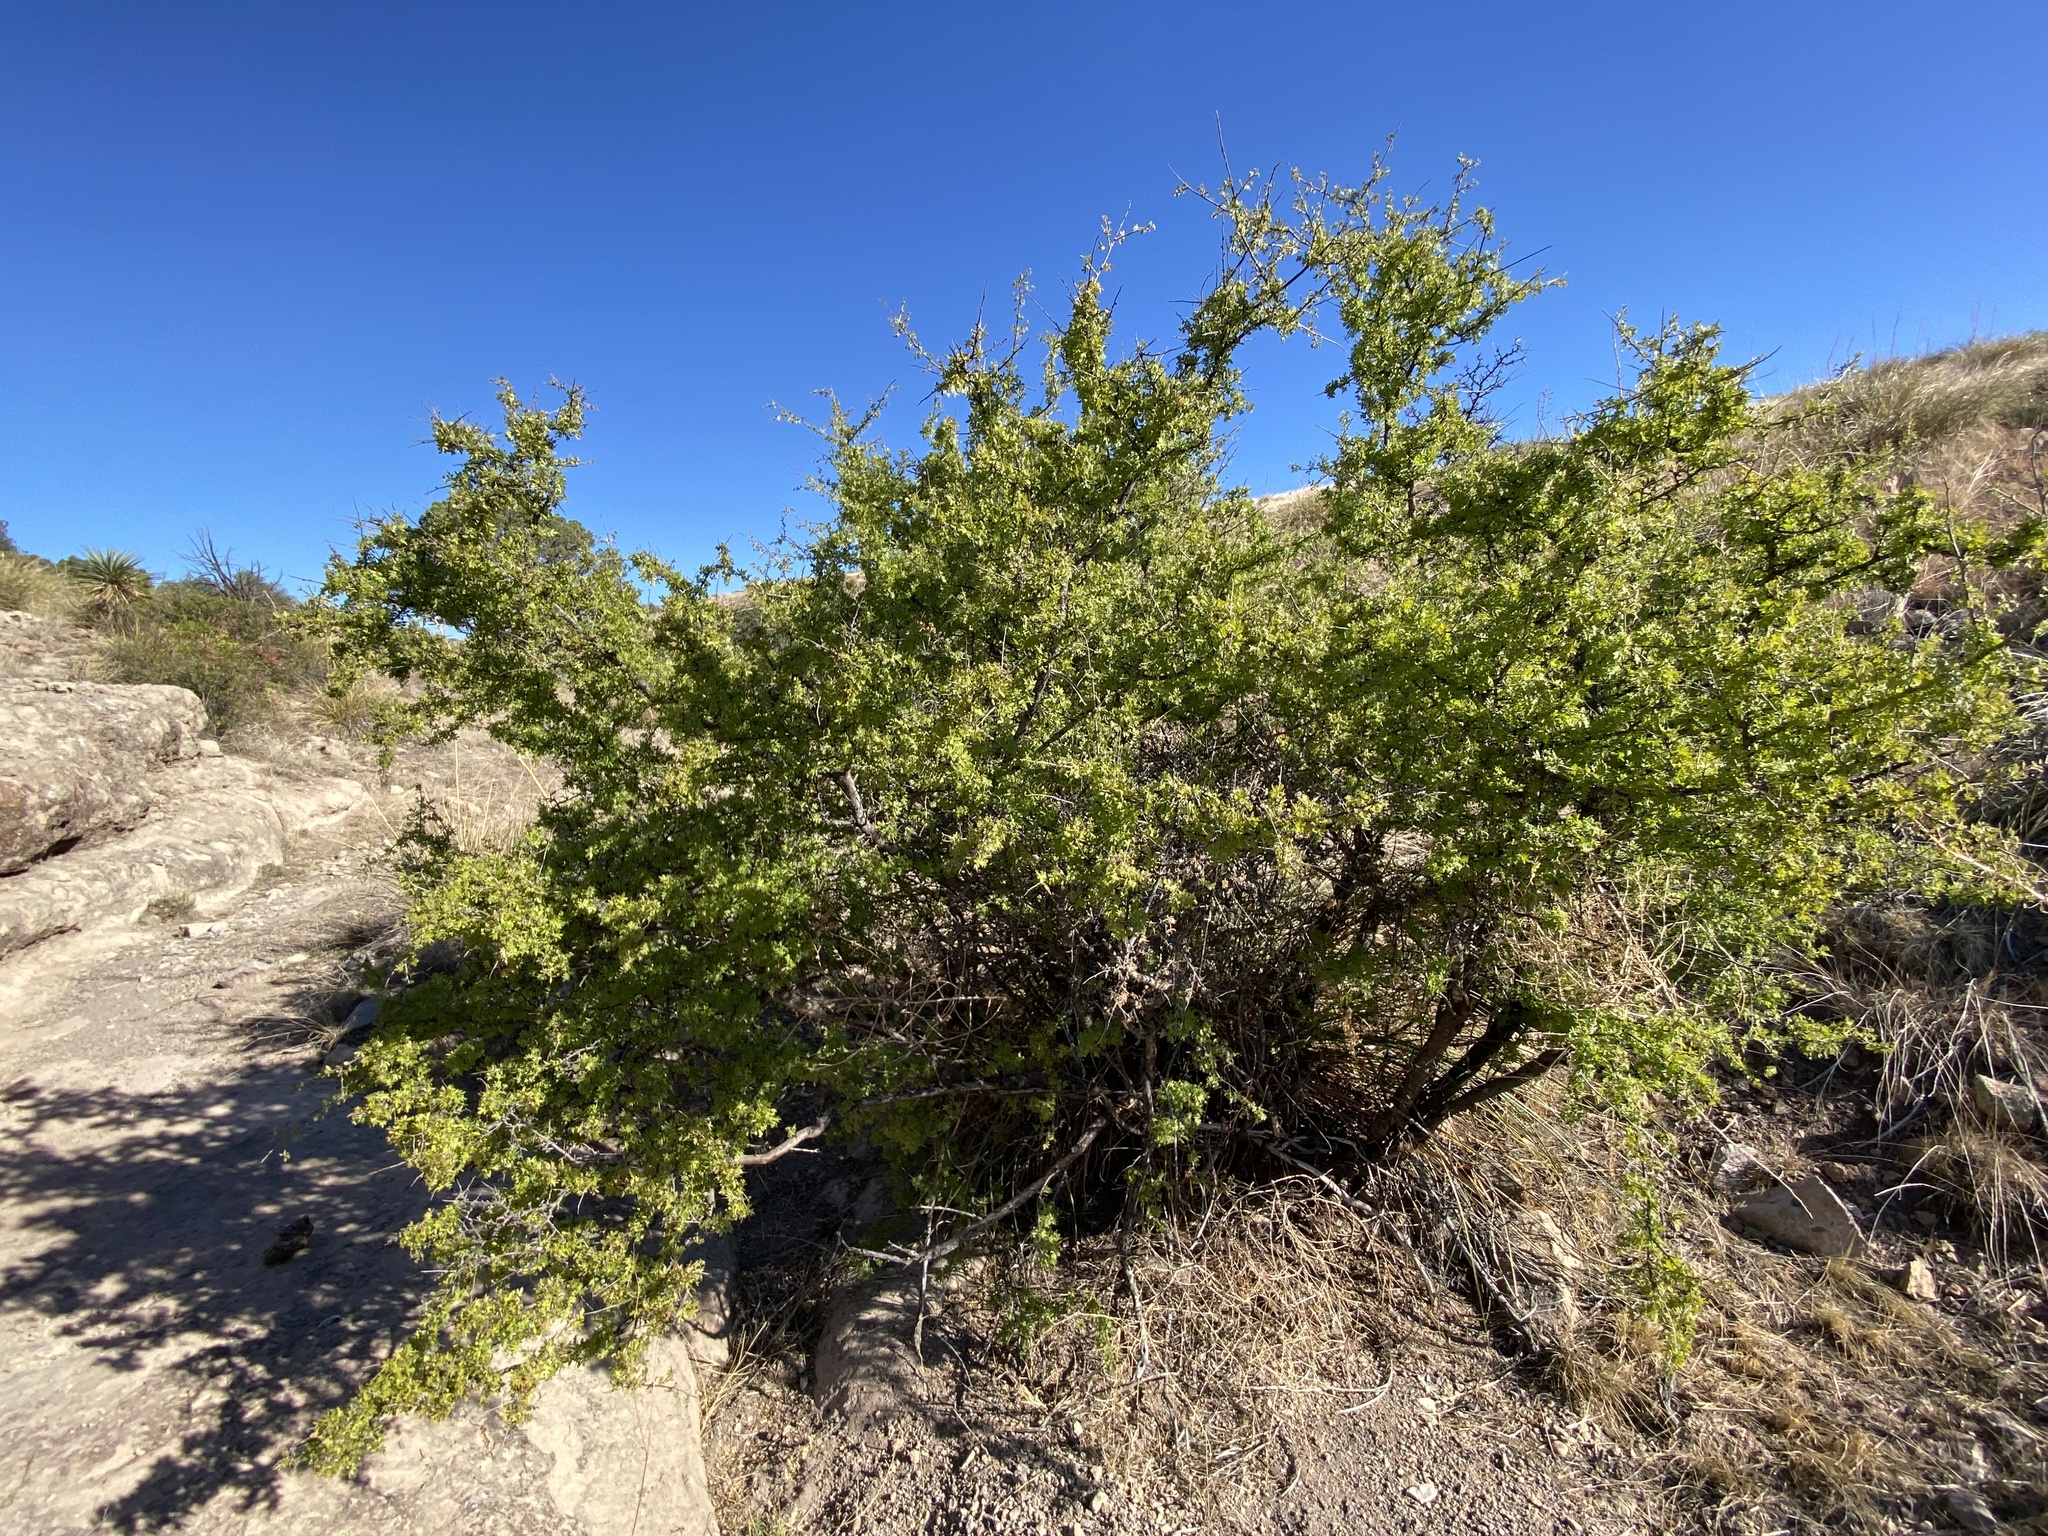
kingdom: Plantae
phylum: Tracheophyta
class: Magnoliopsida
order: Sapindales
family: Anacardiaceae
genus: Rhus
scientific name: Rhus microphylla
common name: Desert sumac
